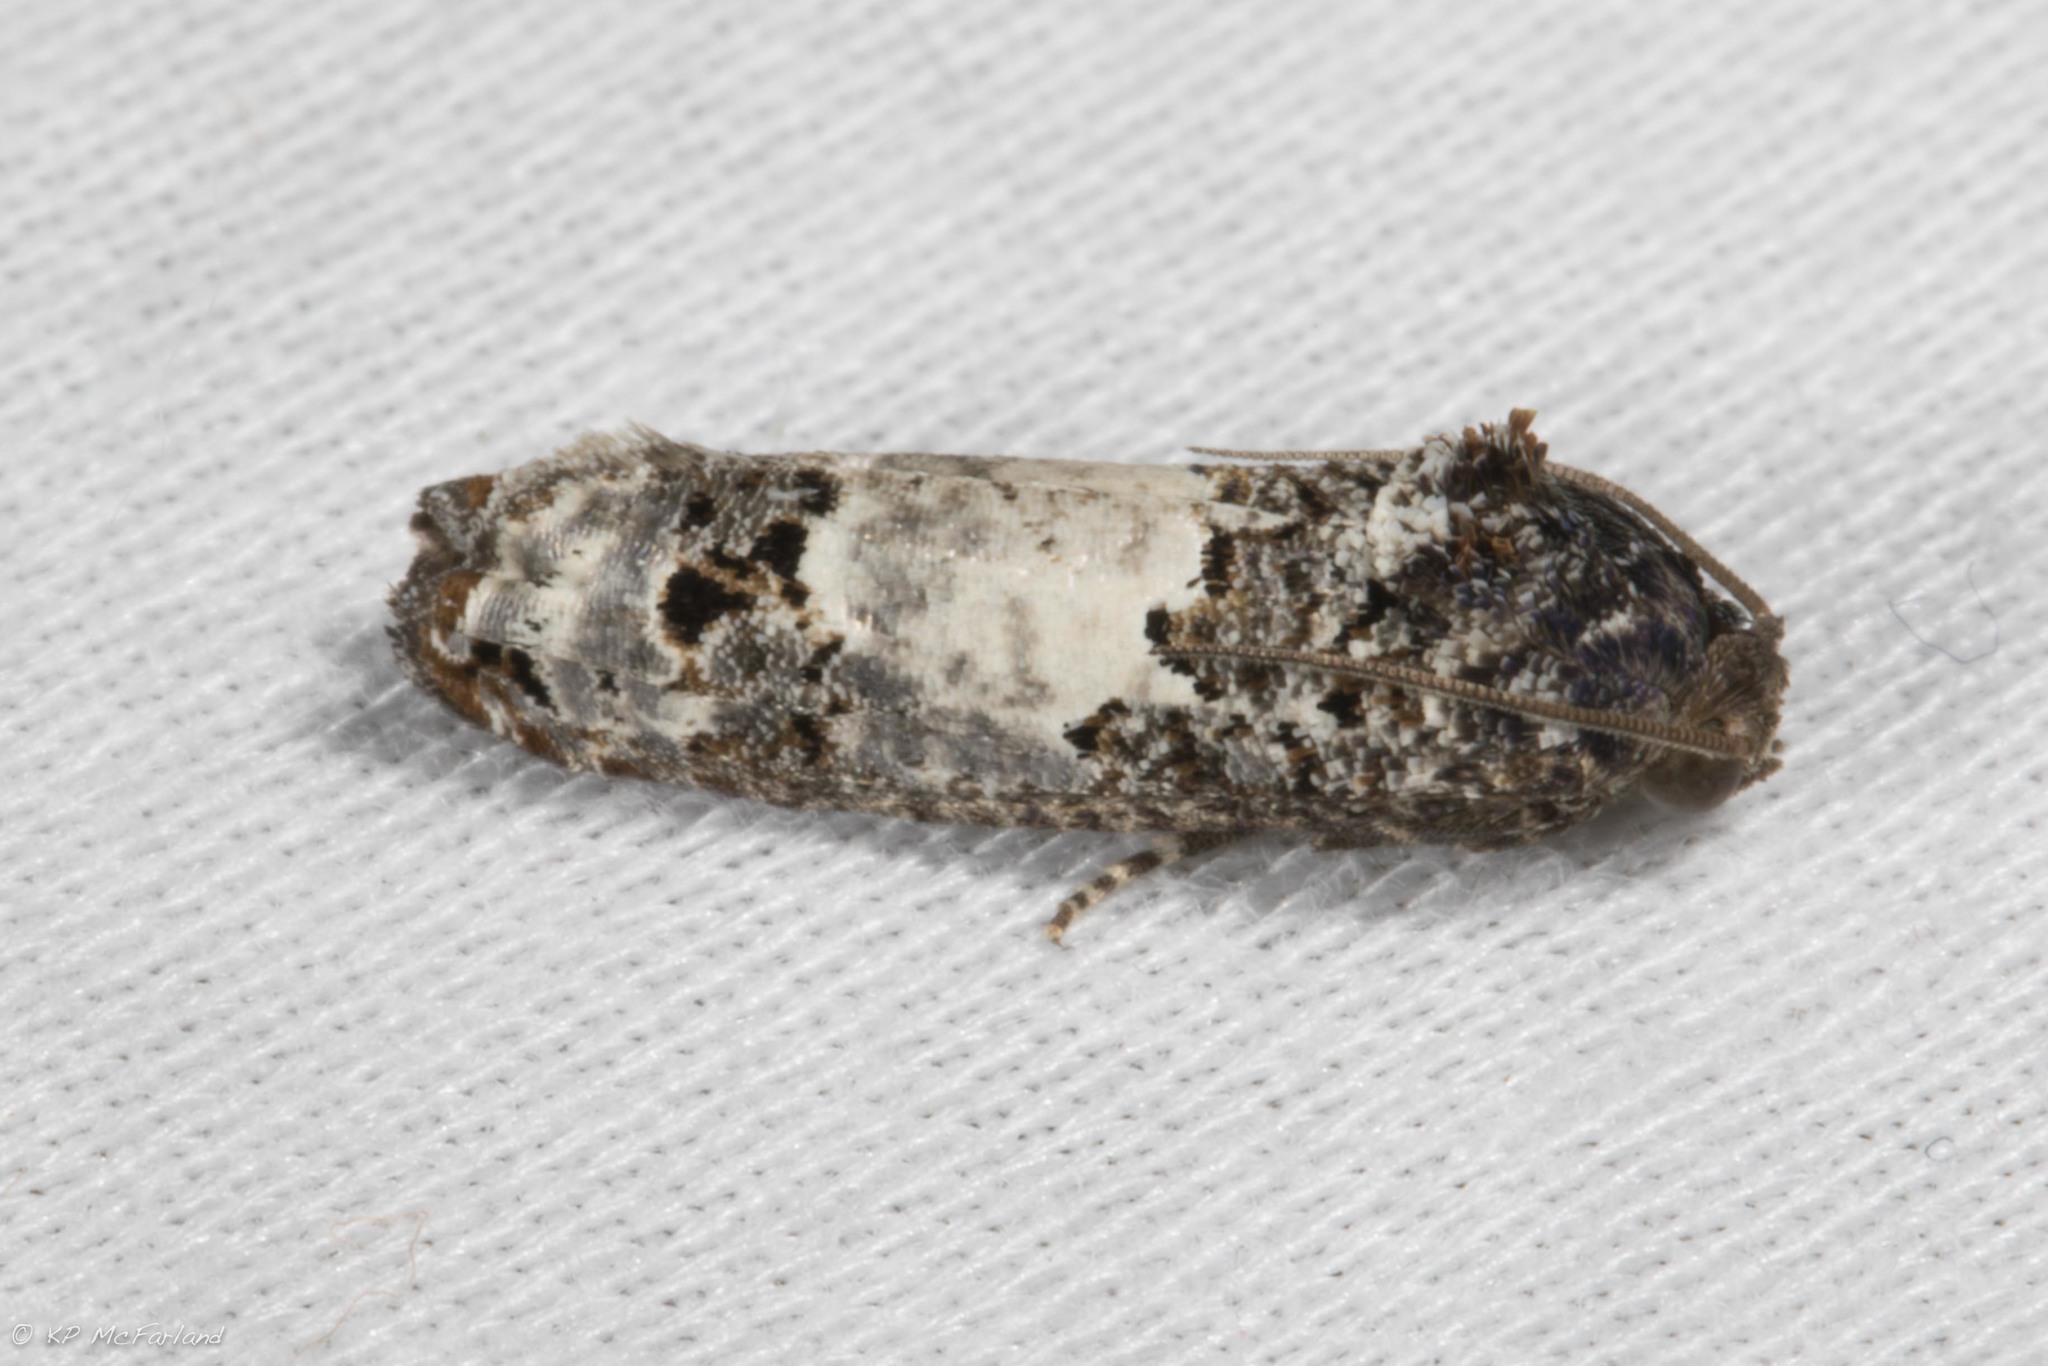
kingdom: Animalia
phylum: Arthropoda
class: Insecta
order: Lepidoptera
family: Tortricidae
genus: Epiblema
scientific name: Epiblema carolinana
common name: Gray-blotched epiblema moth
